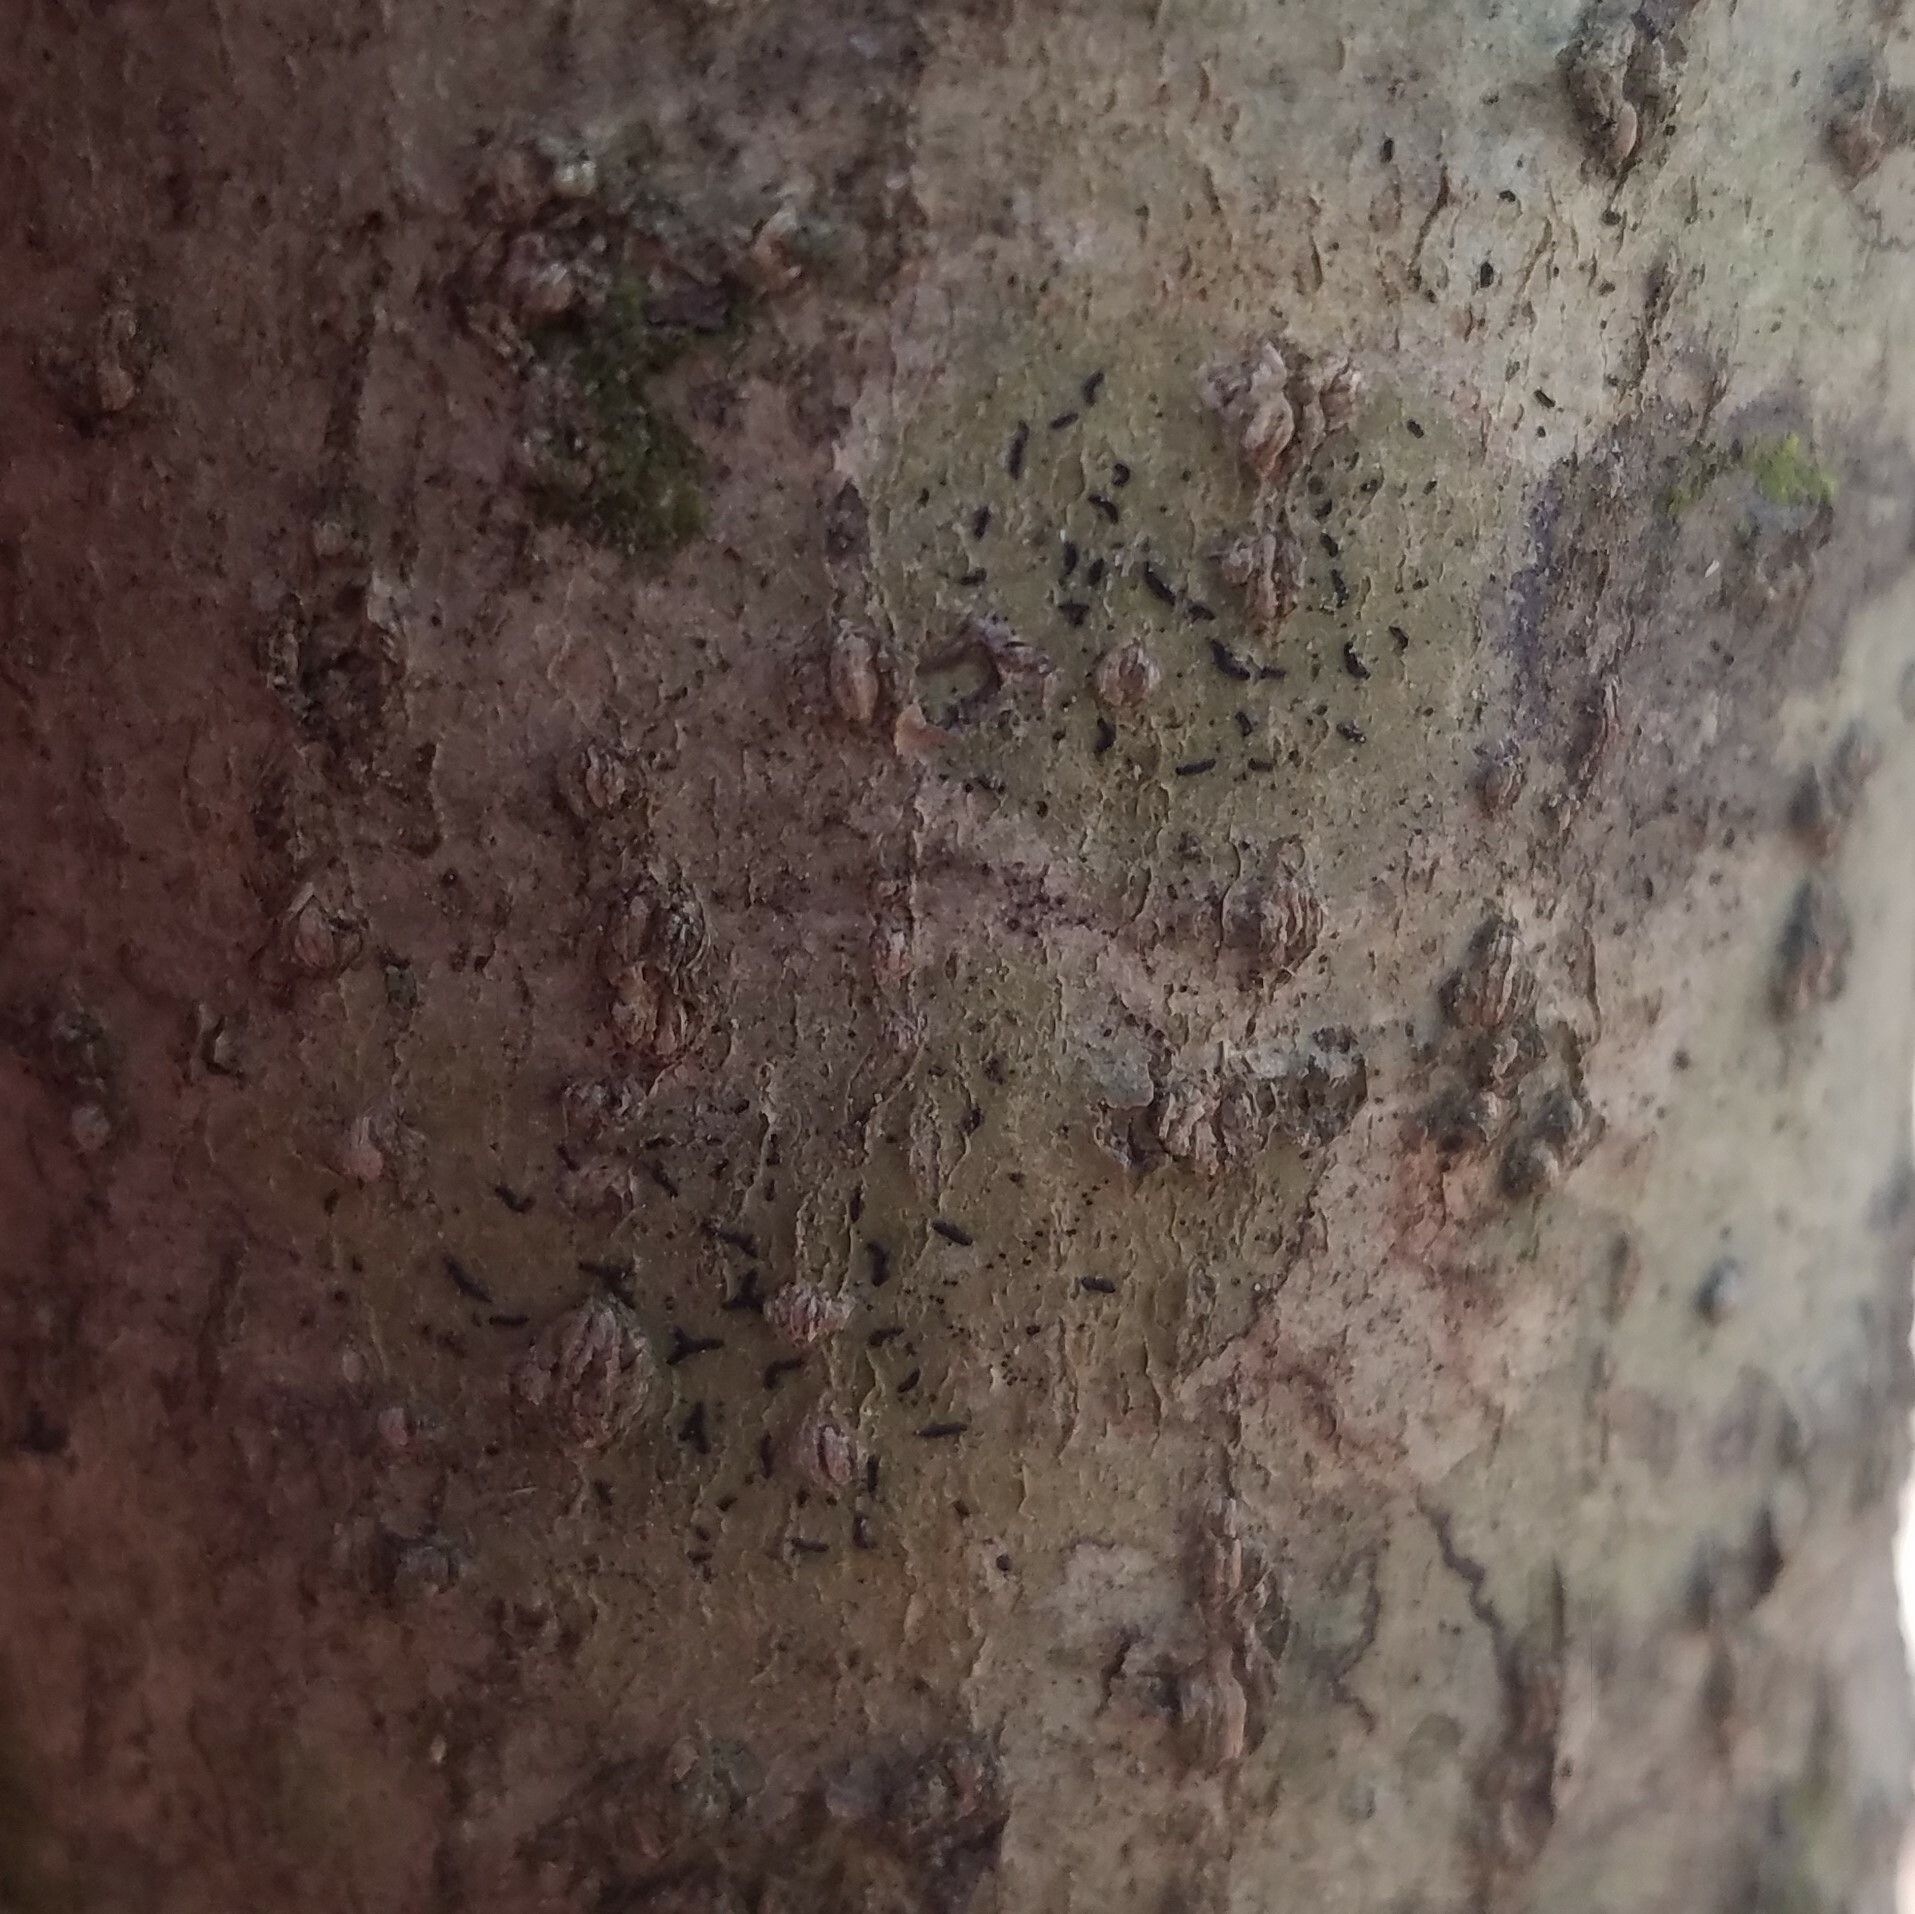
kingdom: Fungi
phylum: Ascomycota
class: Arthoniomycetes
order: Arthoniales
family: Lecanographaceae
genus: Zwackhia
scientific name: Zwackhia viridis
